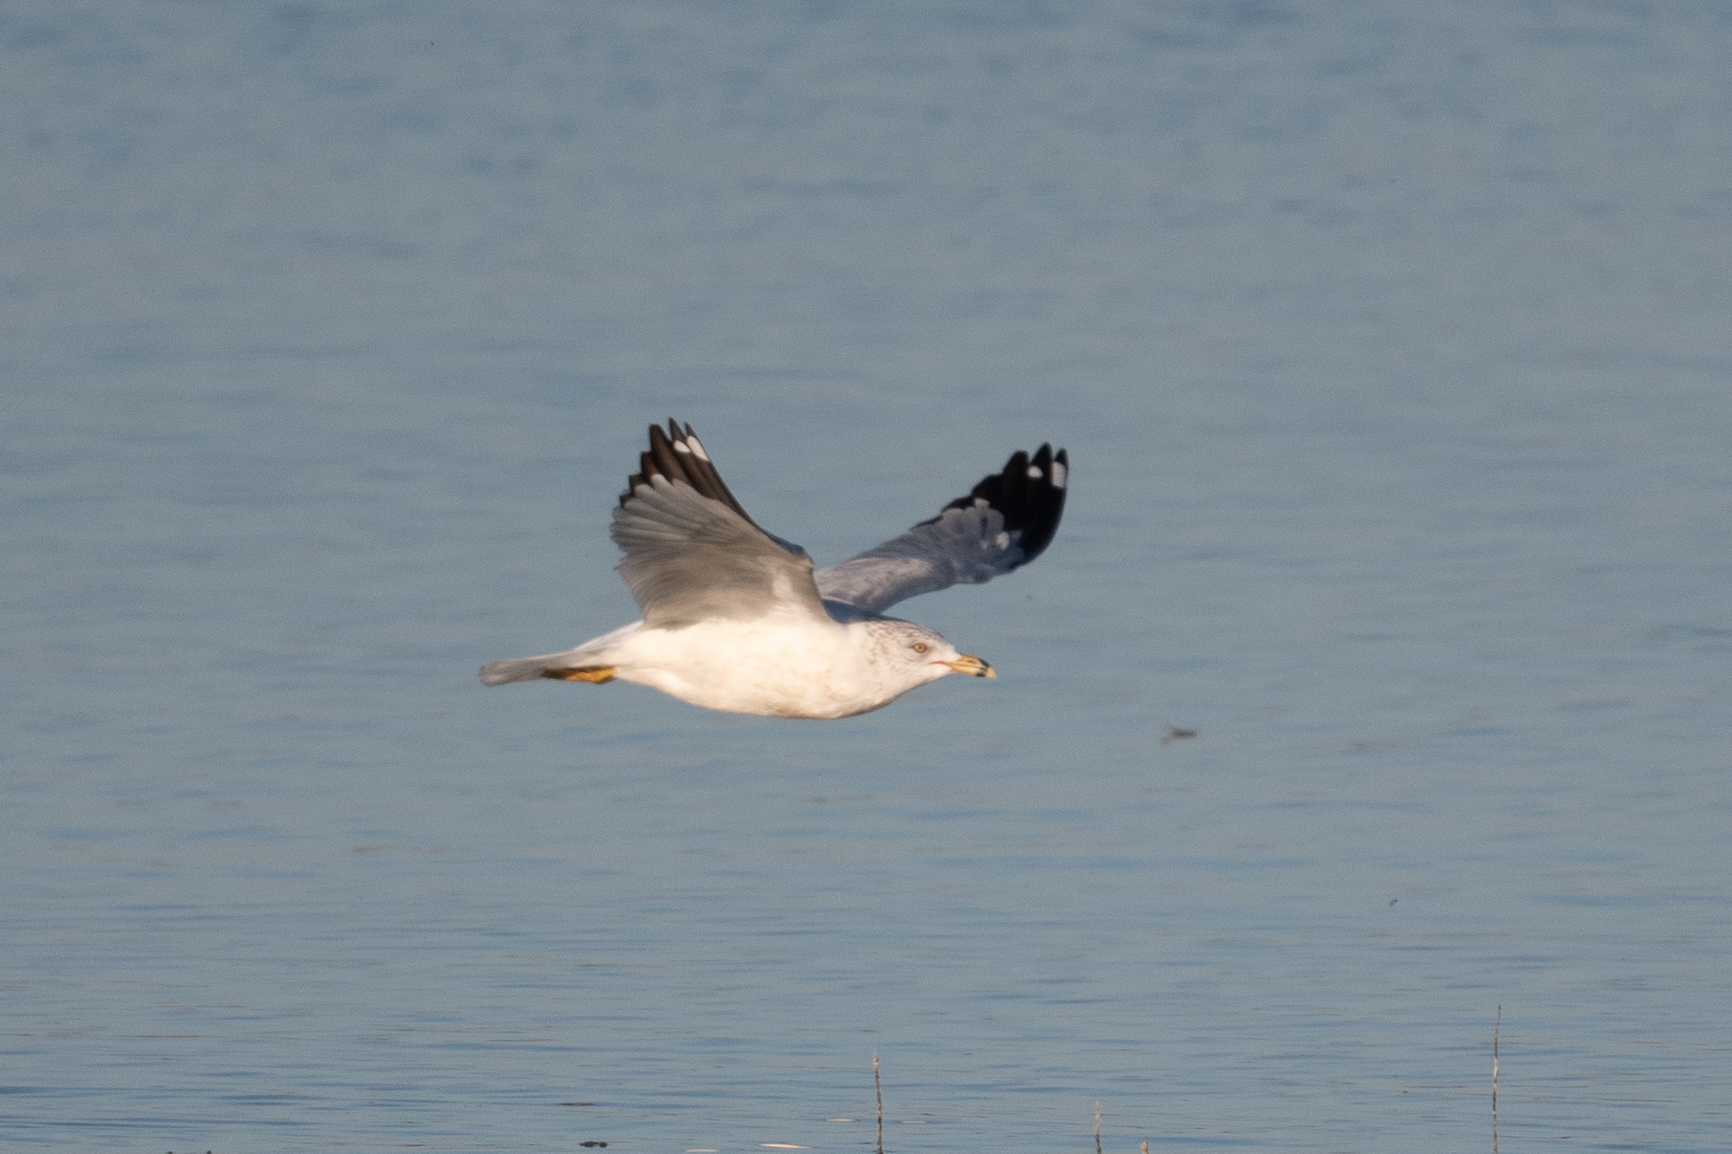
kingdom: Animalia
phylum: Chordata
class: Aves
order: Charadriiformes
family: Laridae
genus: Larus
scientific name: Larus delawarensis
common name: Ring-billed gull
